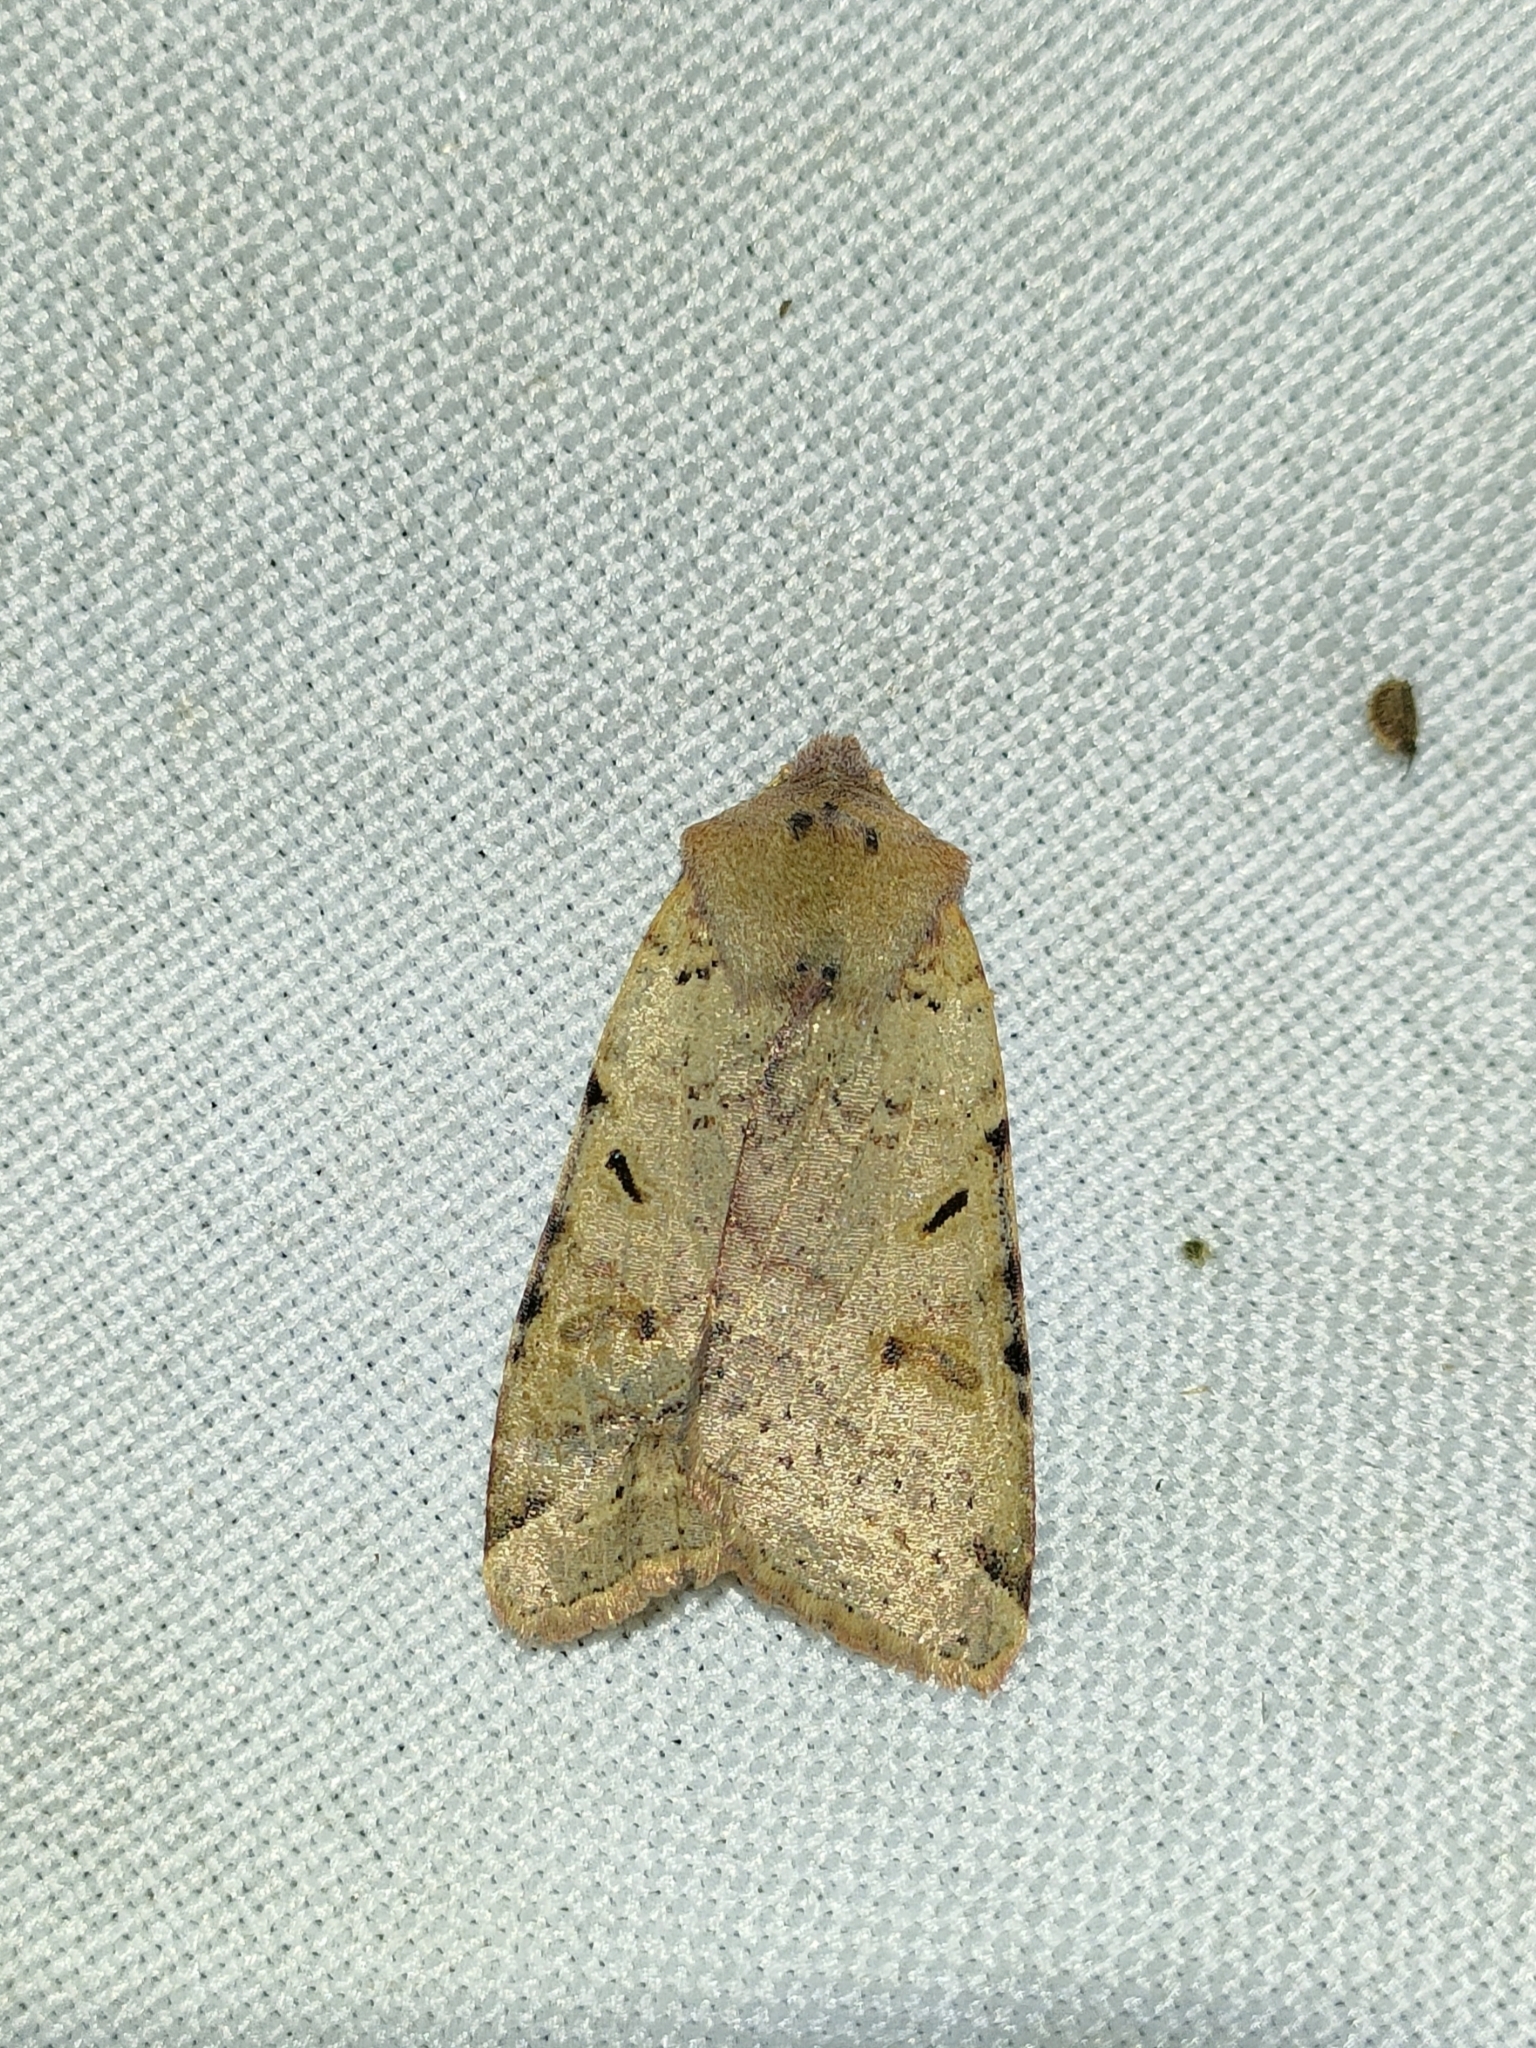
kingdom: Animalia
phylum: Arthropoda
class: Insecta
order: Lepidoptera
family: Noctuidae
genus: Agrochola
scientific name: Agrochola lychnidis
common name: Beaded chestnut
